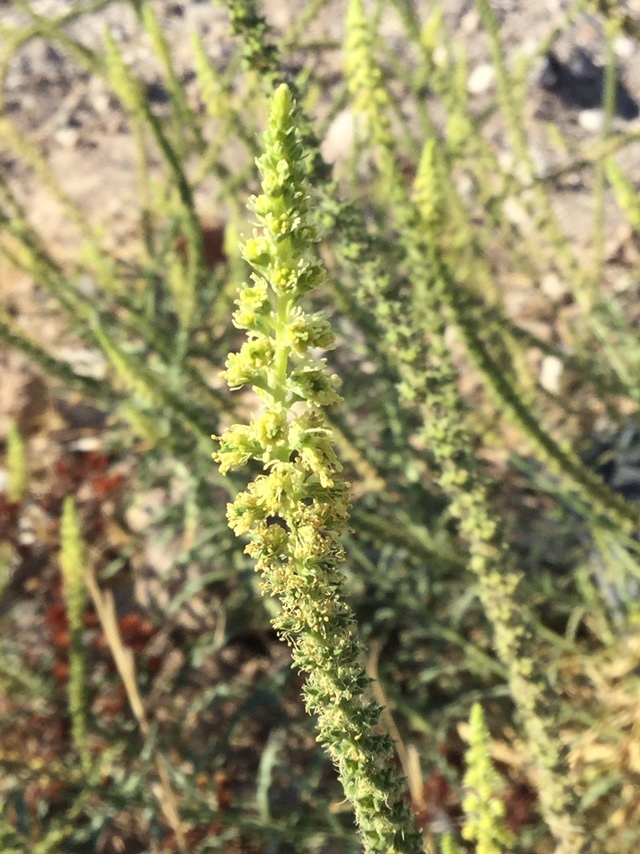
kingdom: Plantae
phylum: Tracheophyta
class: Magnoliopsida
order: Brassicales
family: Resedaceae
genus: Reseda
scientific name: Reseda luteola
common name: Weld
